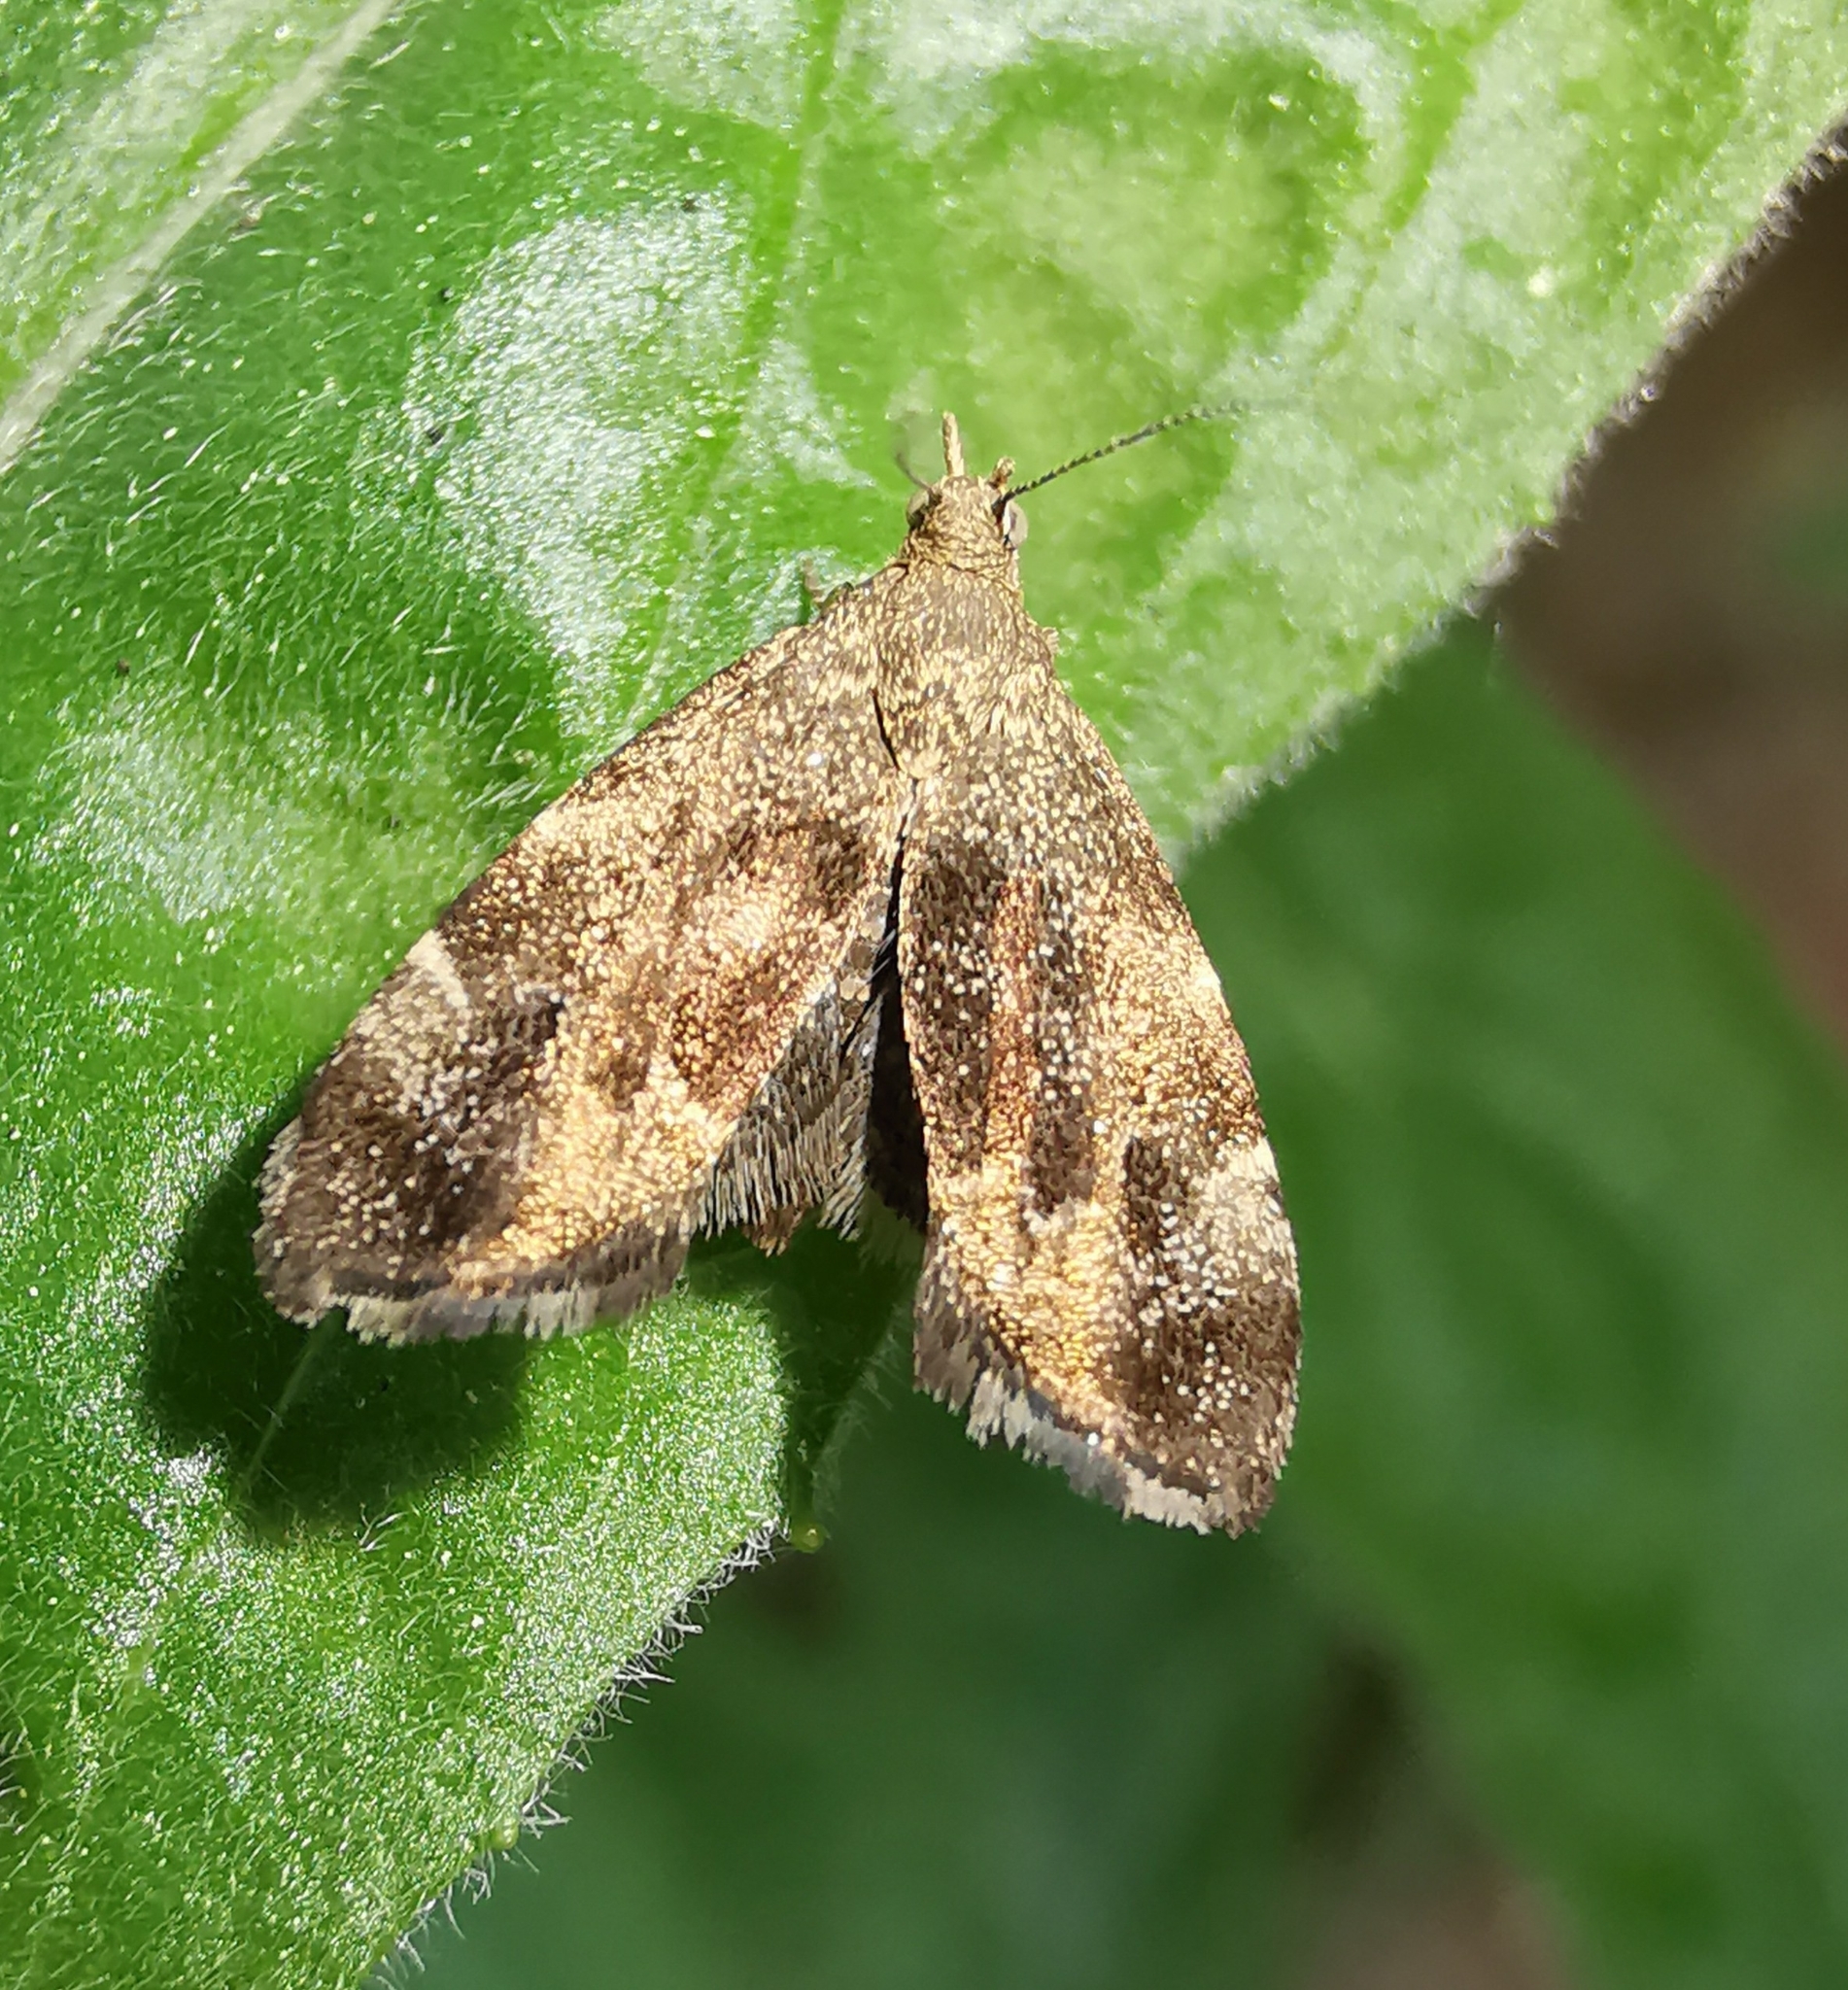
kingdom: Animalia
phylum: Arthropoda
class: Insecta
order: Lepidoptera
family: Choreutidae
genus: Anthophila
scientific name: Anthophila fabriciana
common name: Nettle-tap
